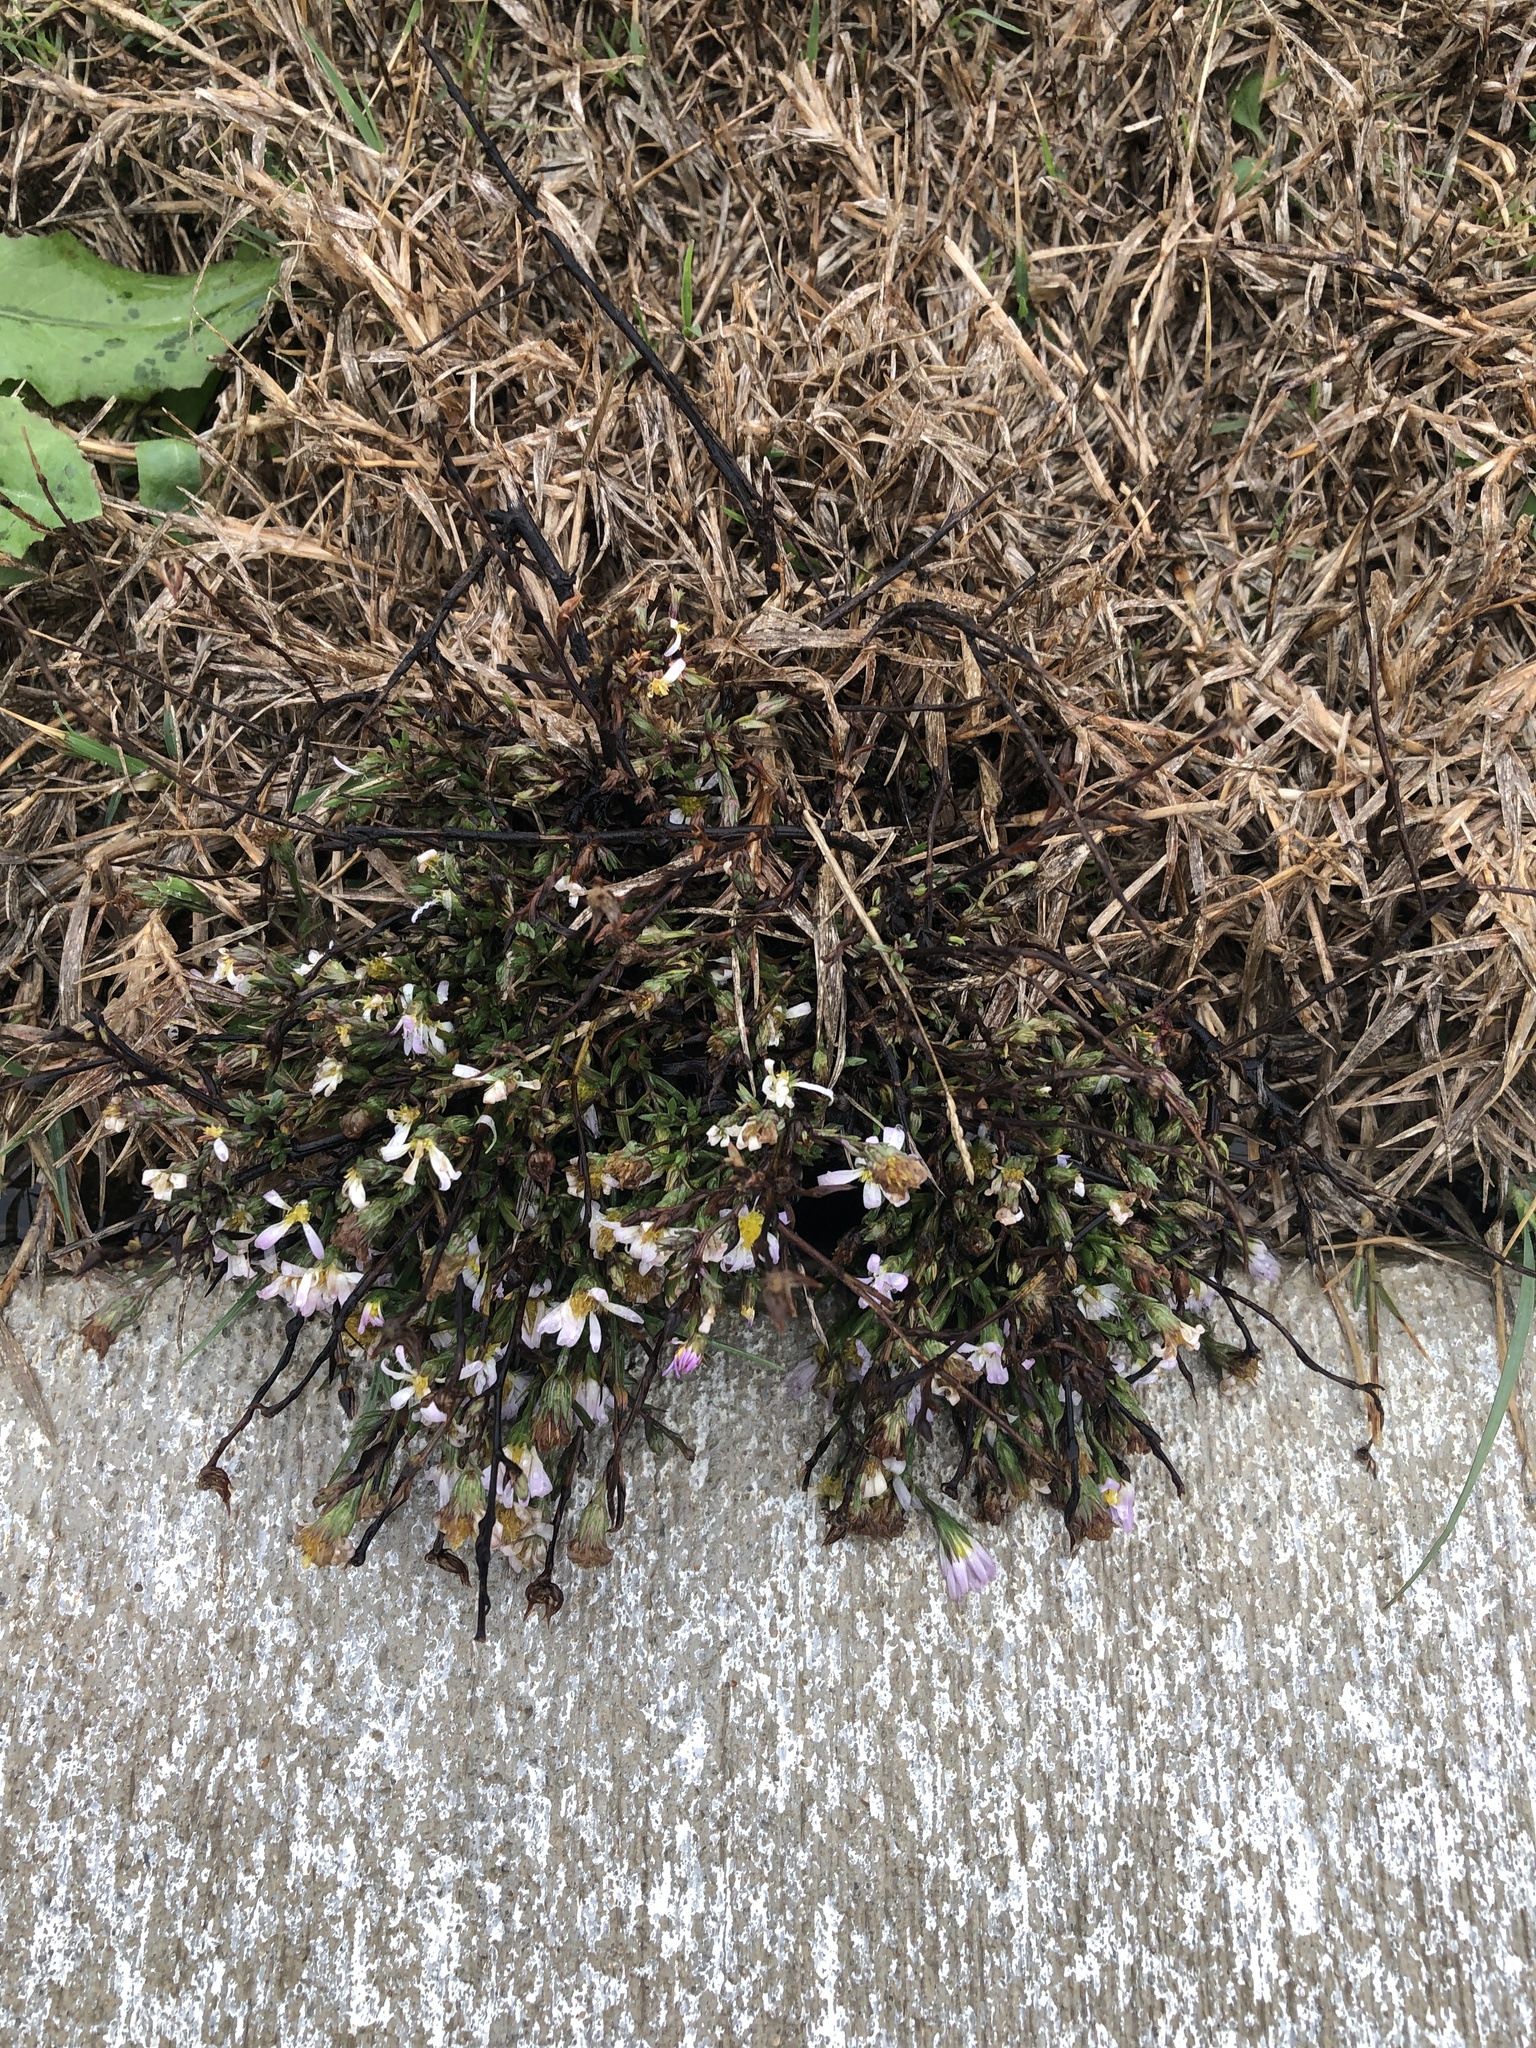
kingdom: Plantae
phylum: Tracheophyta
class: Magnoliopsida
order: Asterales
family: Asteraceae
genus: Symphyotrichum
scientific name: Symphyotrichum divaricatum
